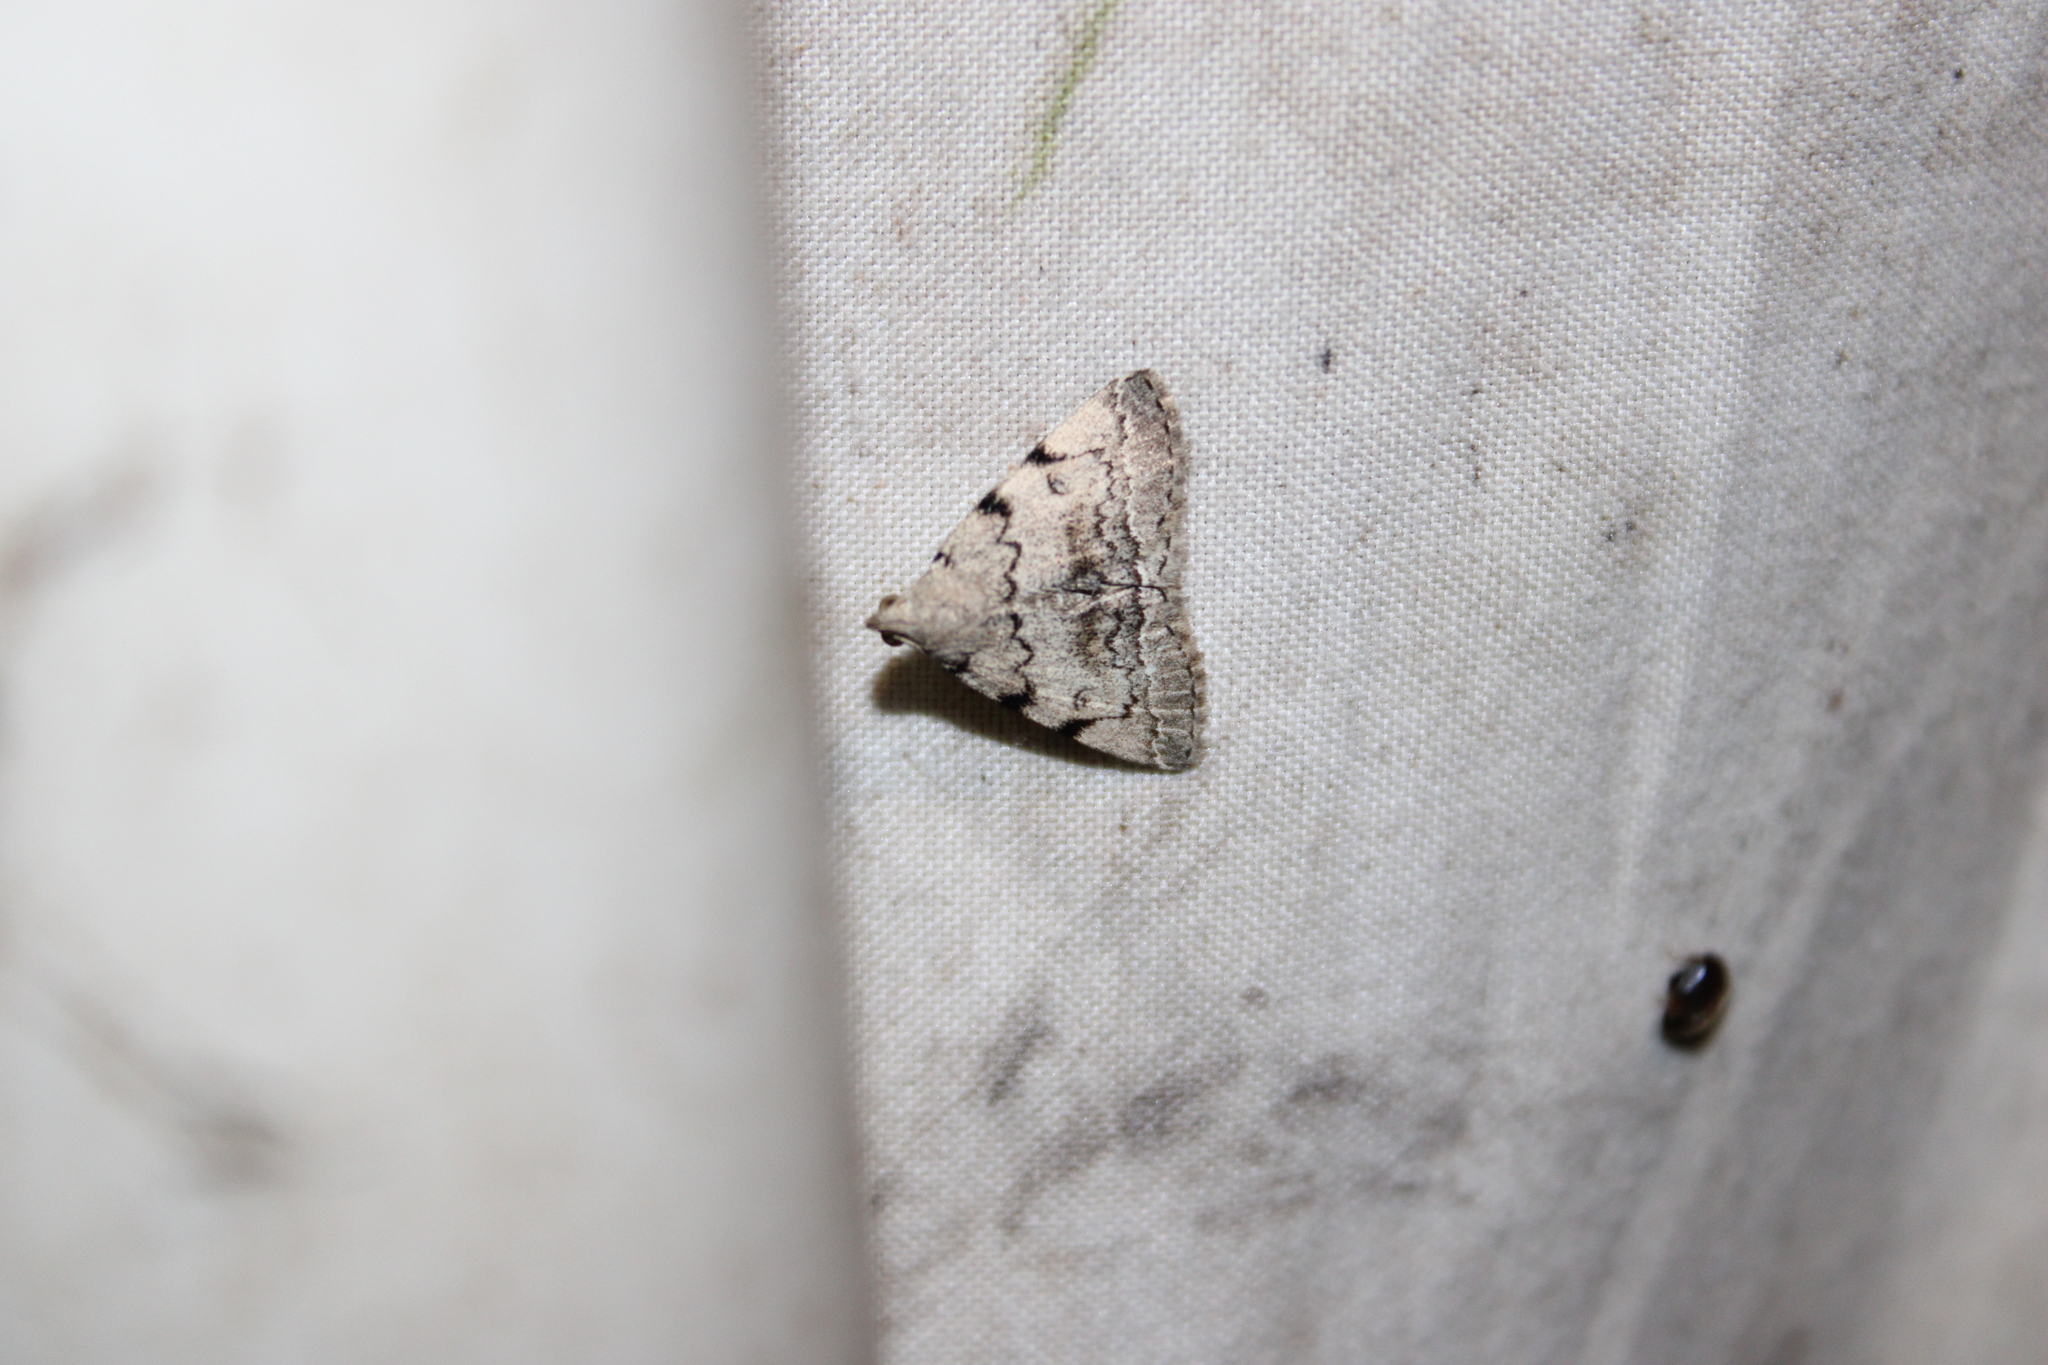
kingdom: Animalia
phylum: Arthropoda
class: Insecta
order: Lepidoptera
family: Erebidae
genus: Zanclognatha
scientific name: Zanclognatha theralis
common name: Flagged fan-foot
